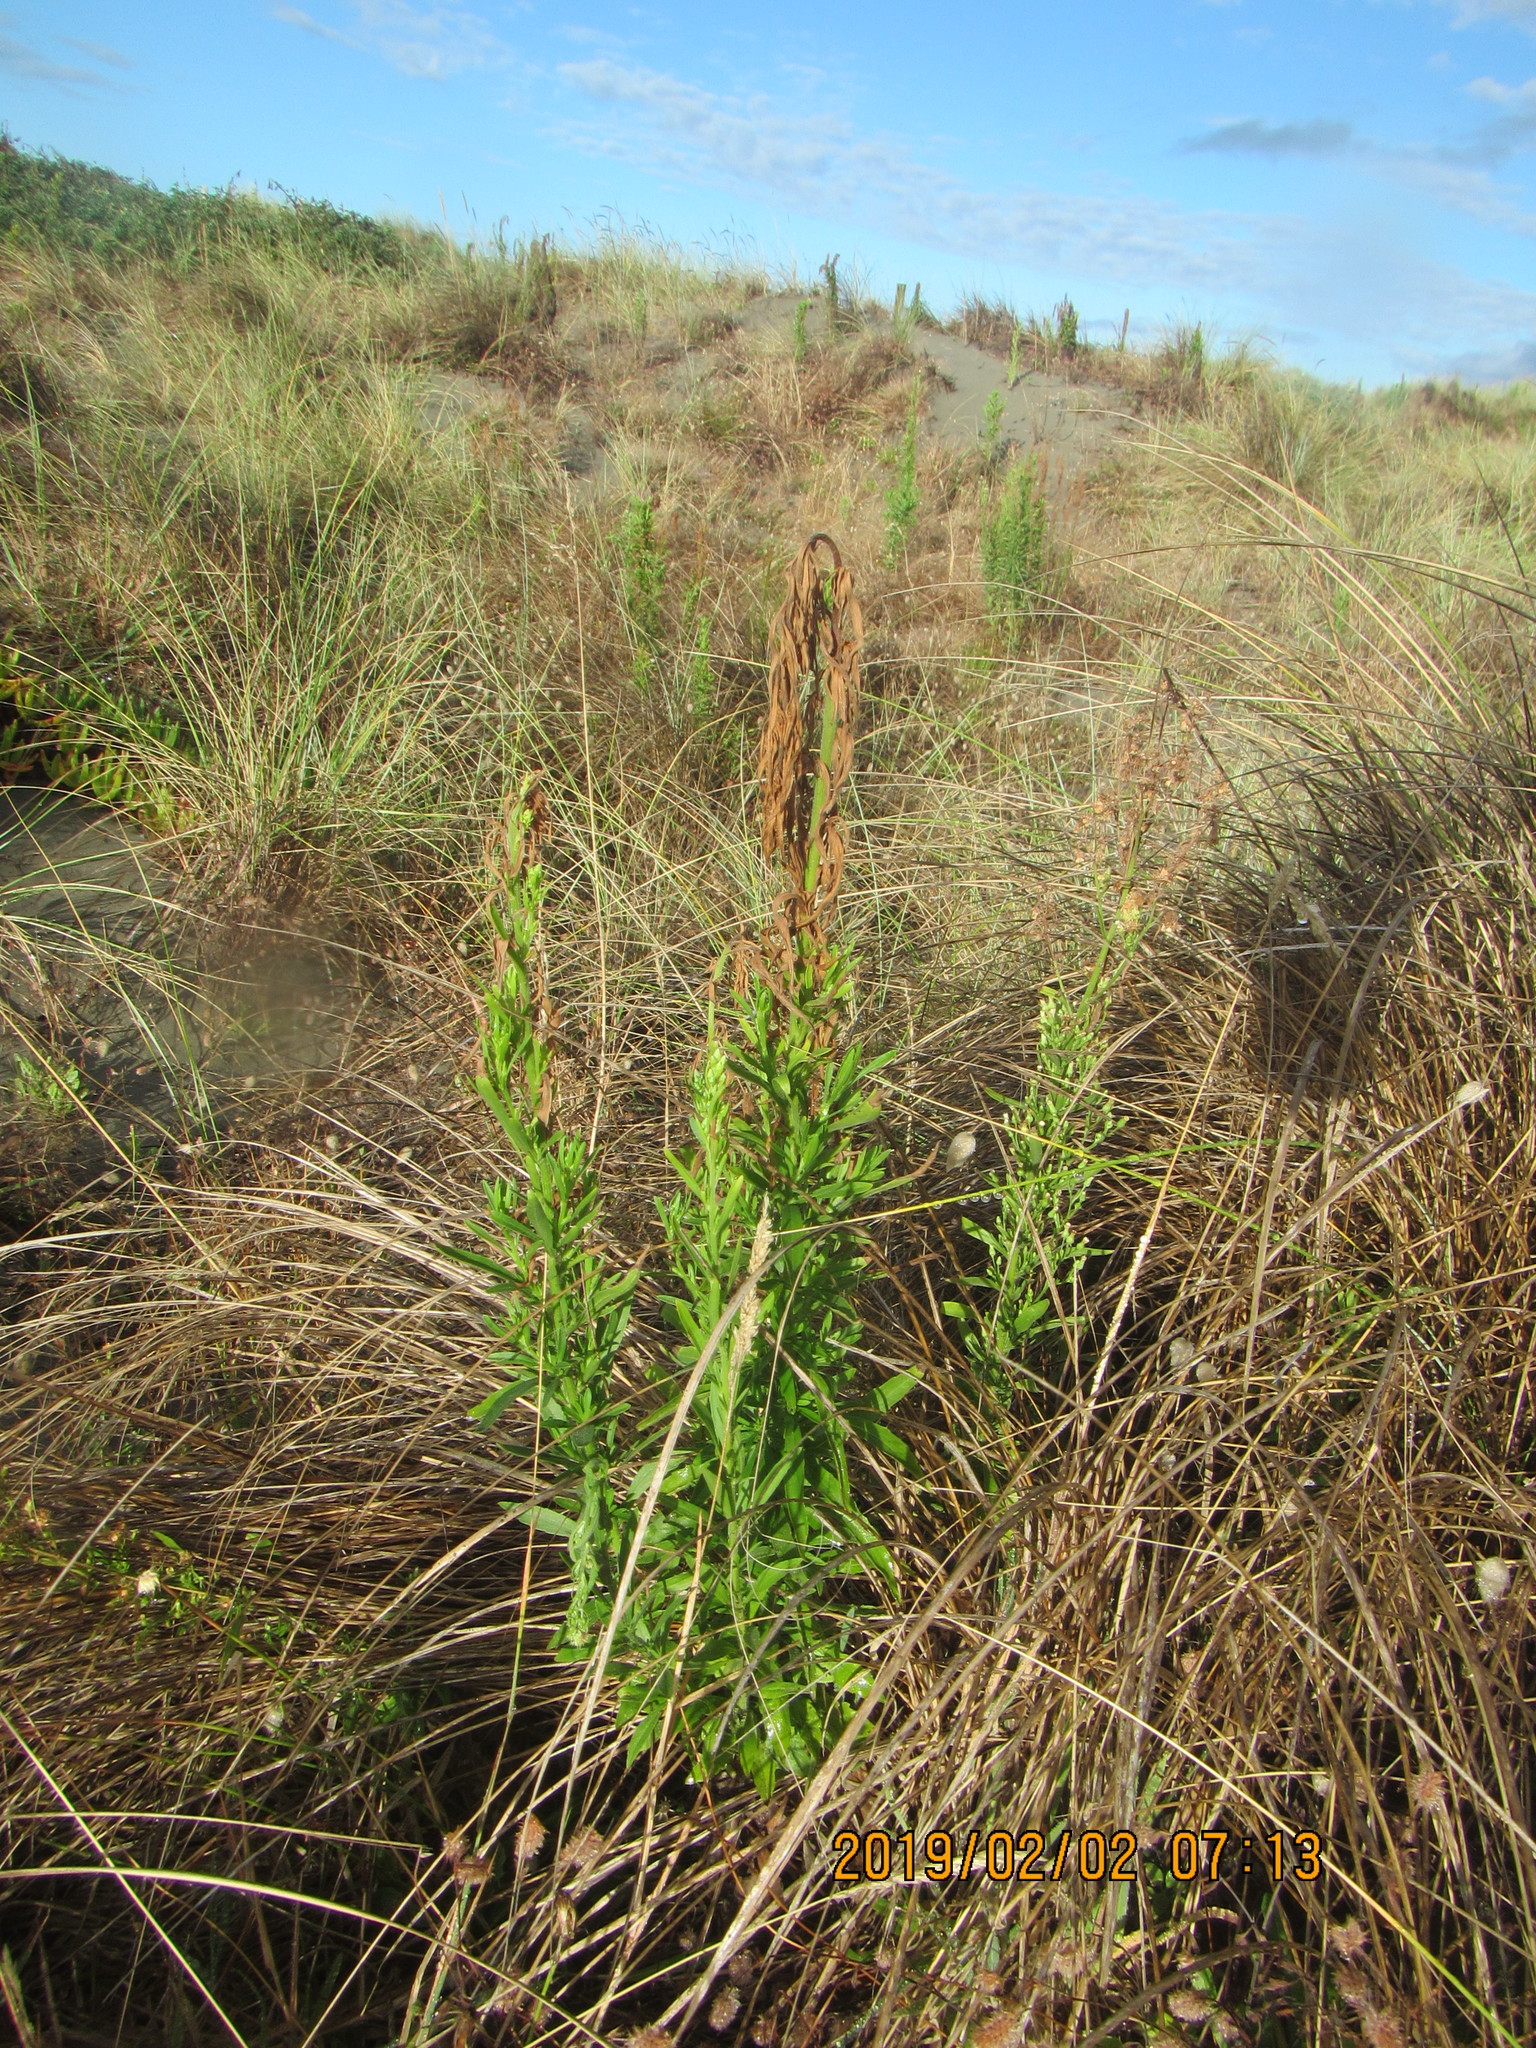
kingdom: Plantae
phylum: Tracheophyta
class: Magnoliopsida
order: Asterales
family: Asteraceae
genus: Erigeron
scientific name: Erigeron sumatrensis
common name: Daisy
